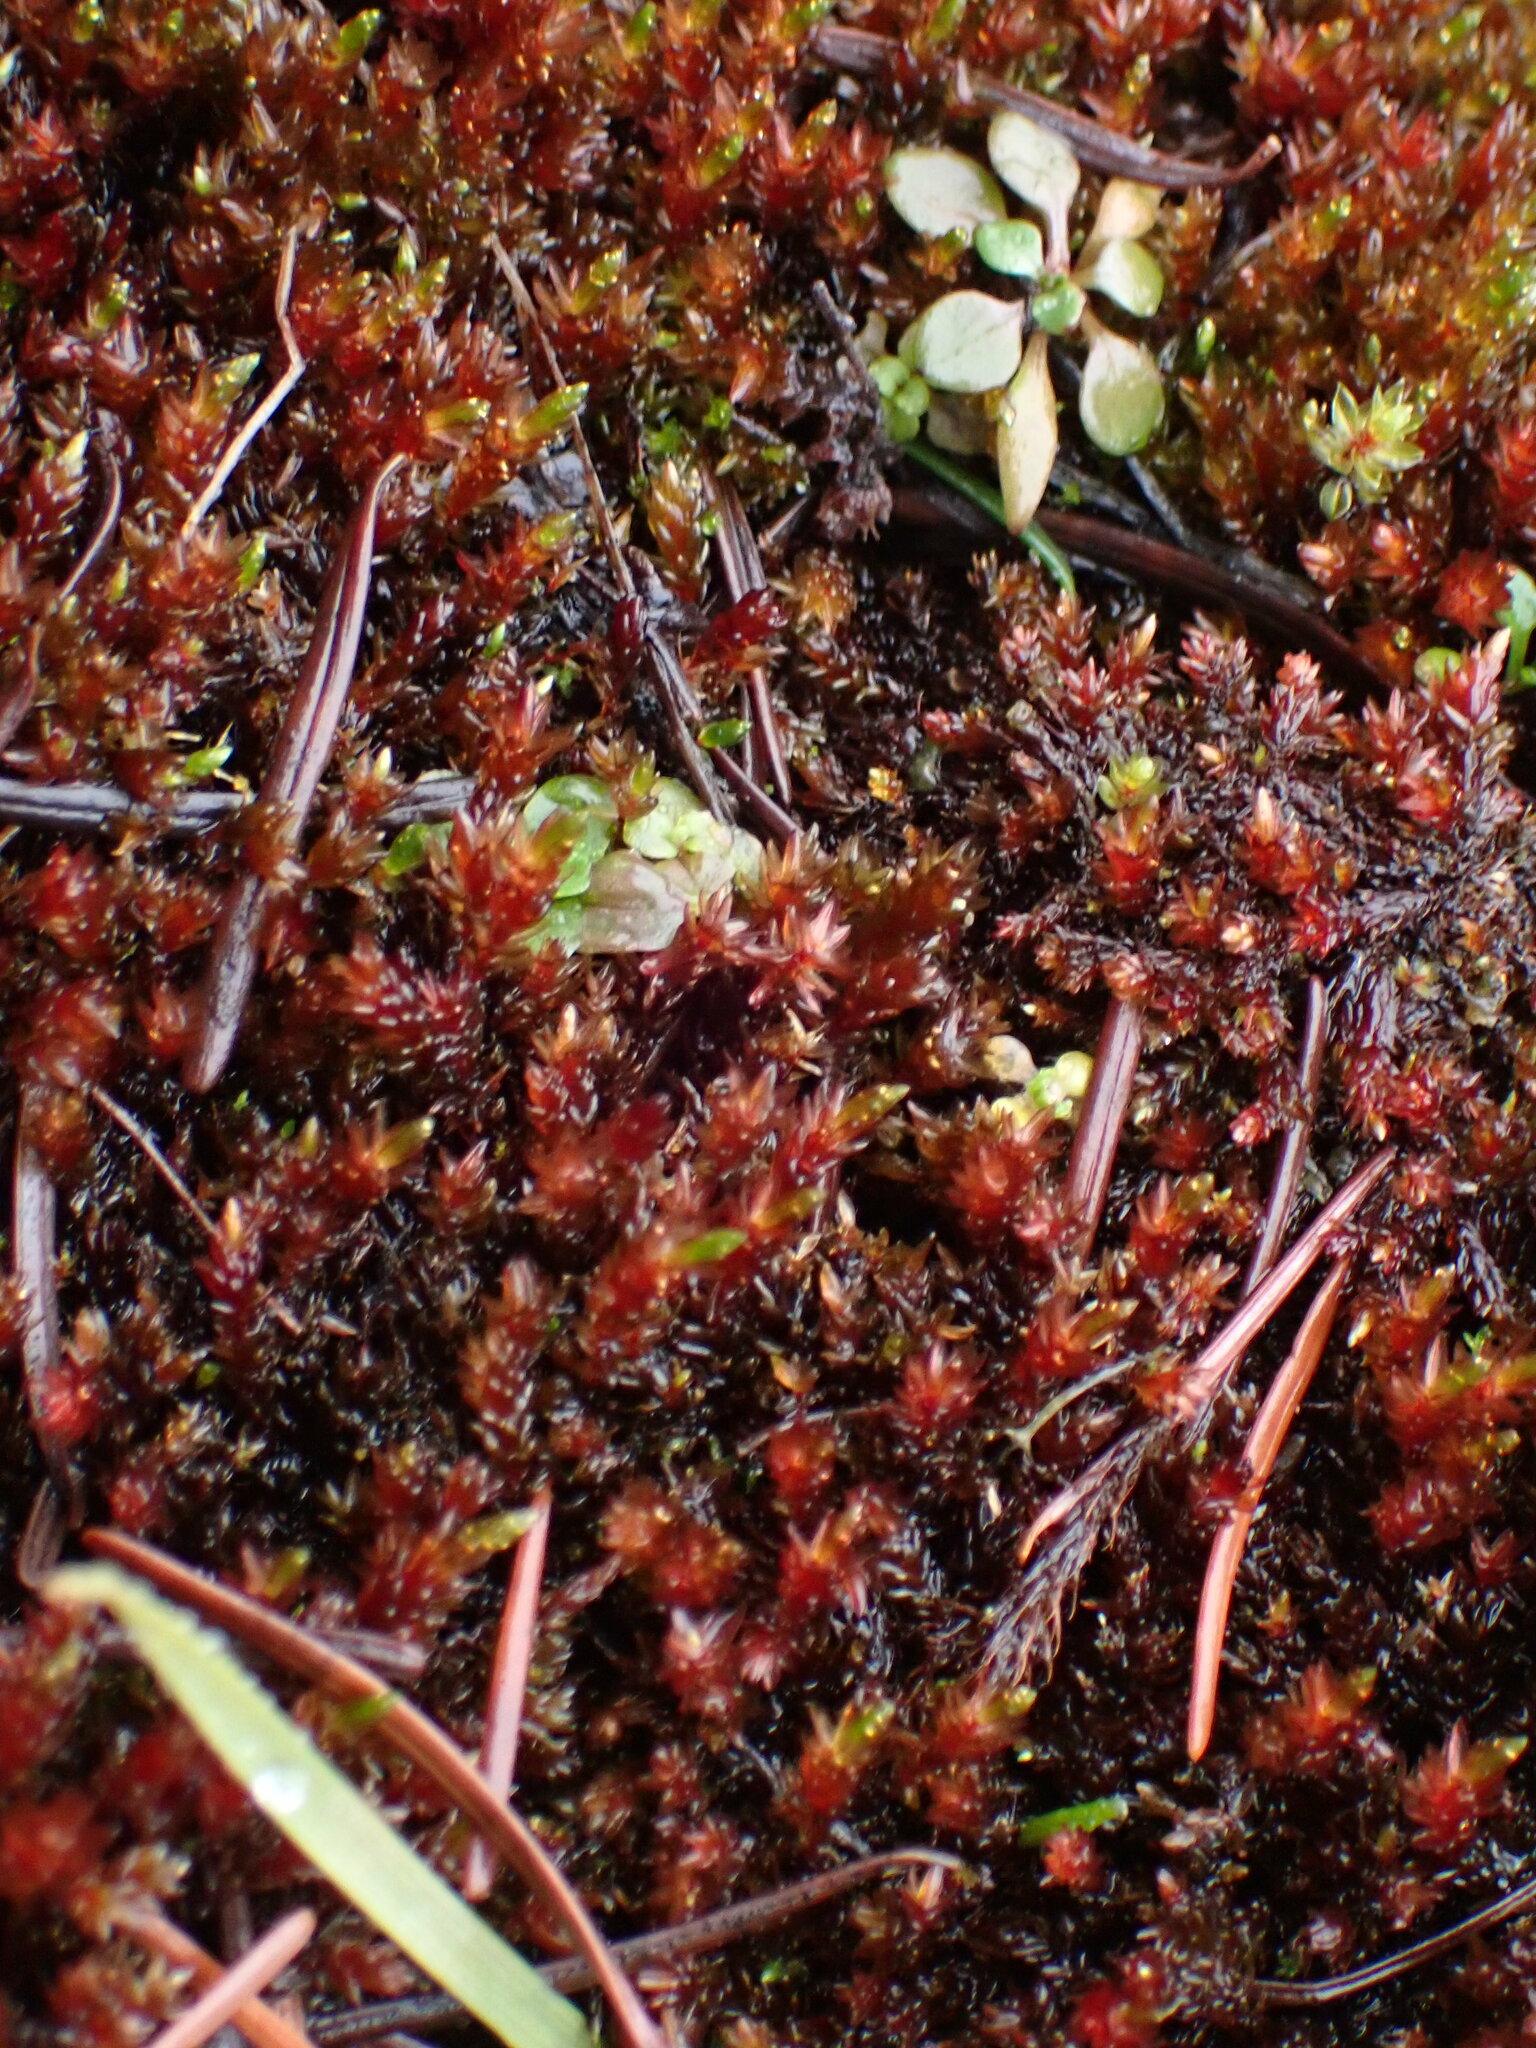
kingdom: Plantae
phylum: Bryophyta
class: Bryopsida
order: Bryales
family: Bryaceae
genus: Imbribryum
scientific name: Imbribryum miniatum
